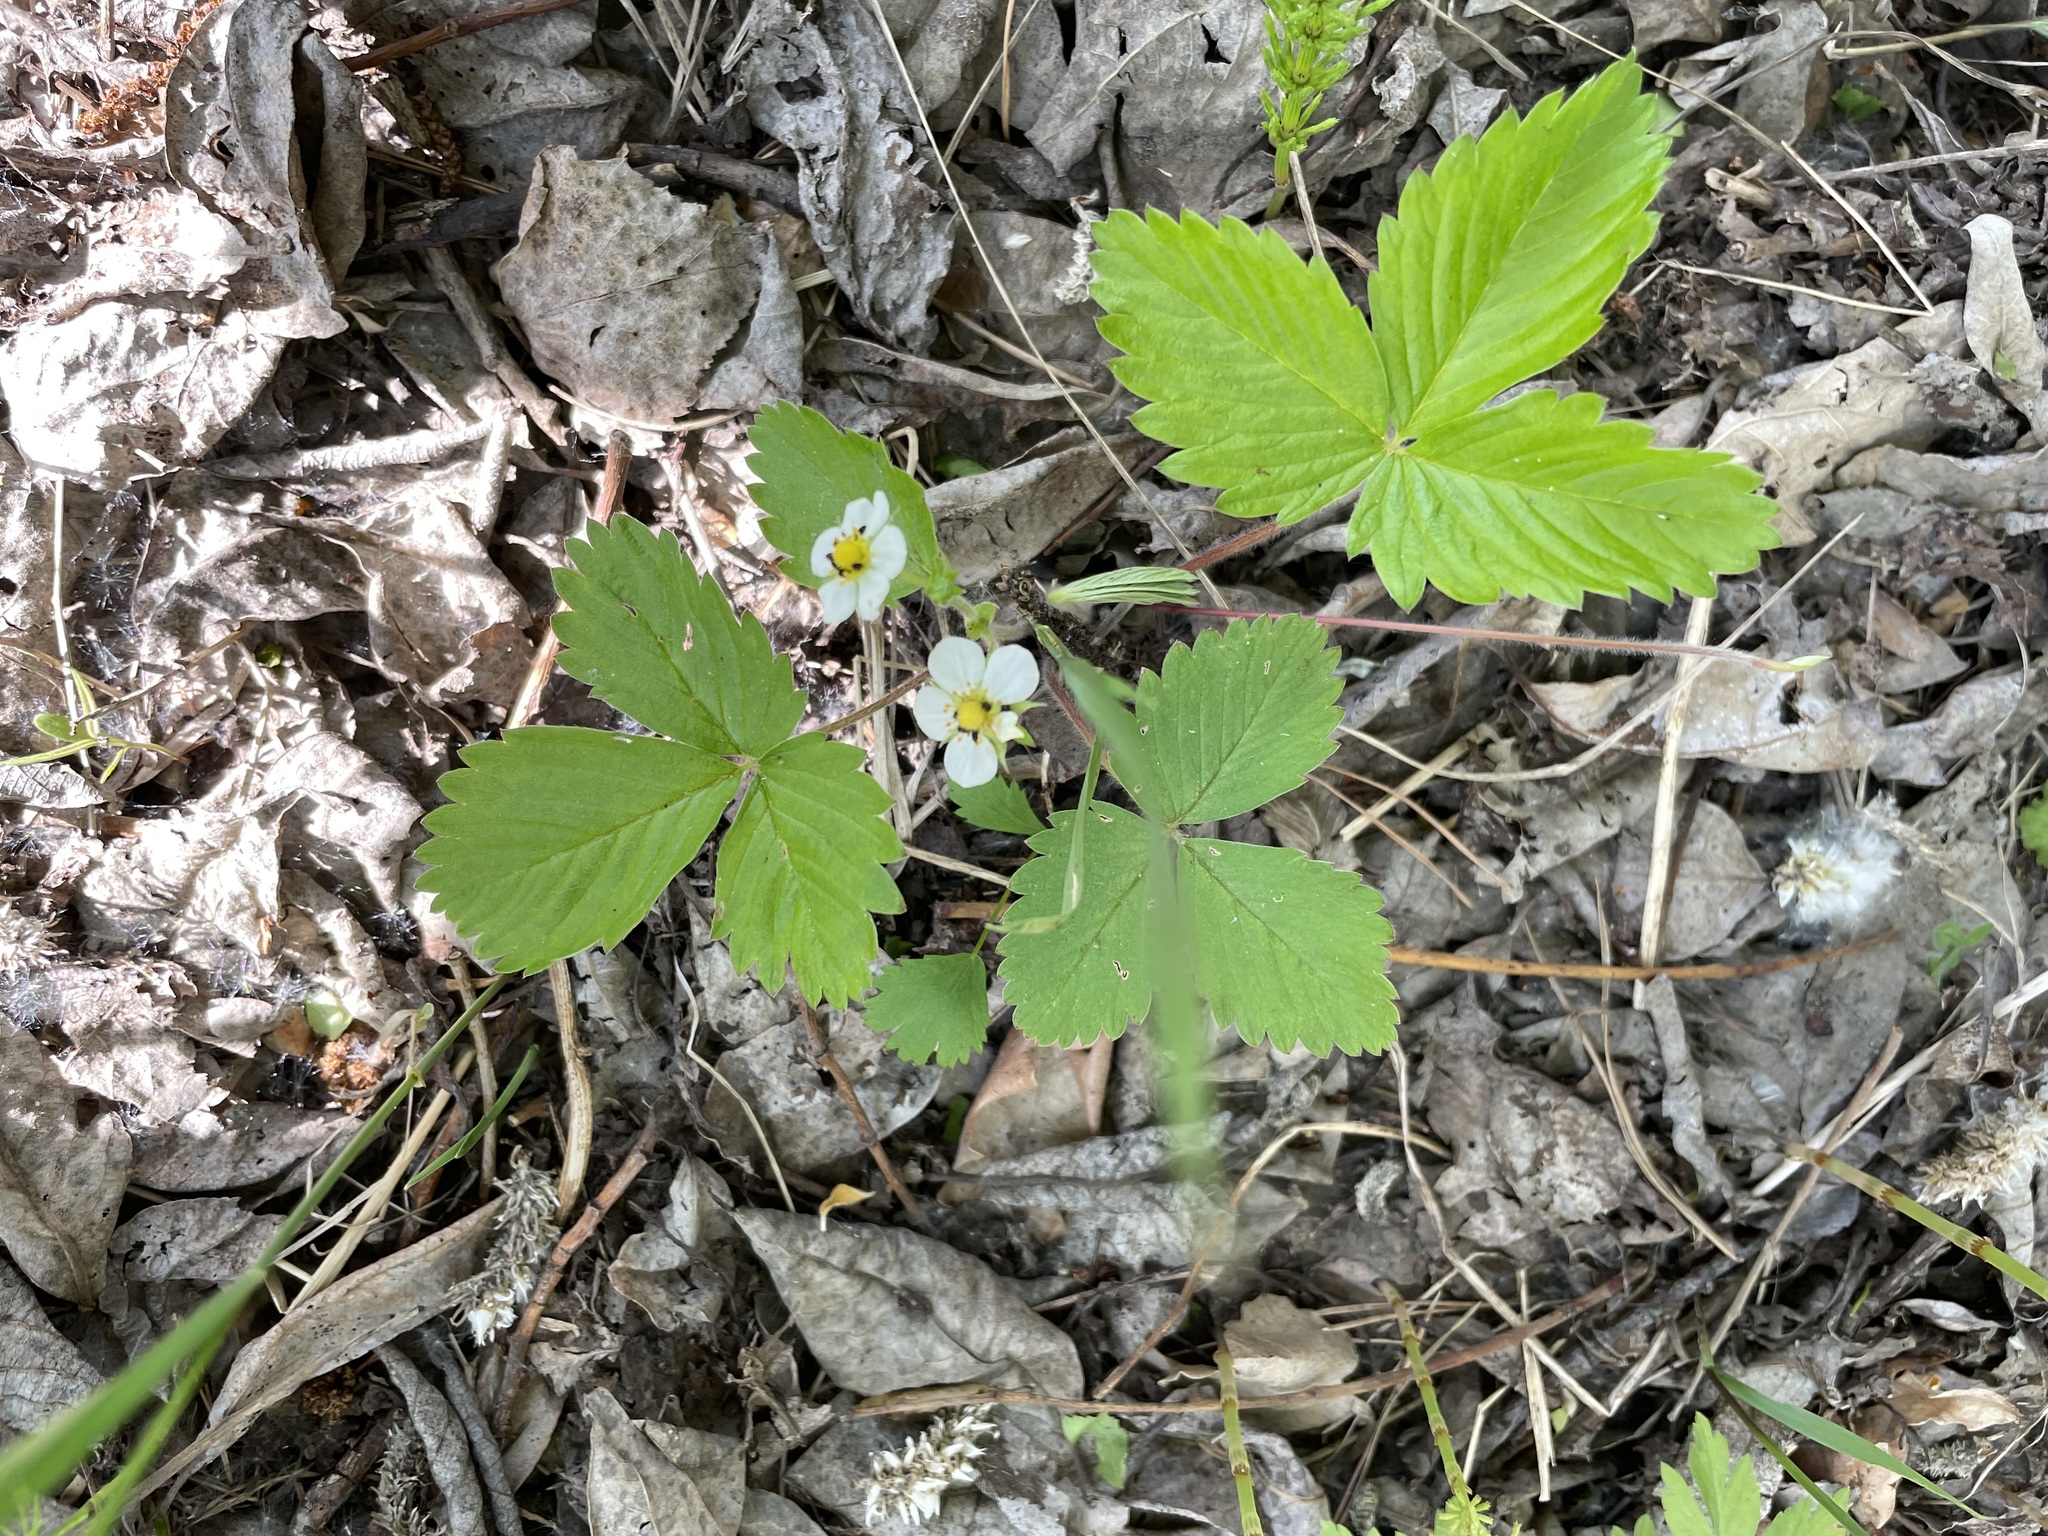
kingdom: Plantae
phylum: Tracheophyta
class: Magnoliopsida
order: Rosales
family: Rosaceae
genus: Fragaria
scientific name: Fragaria vesca
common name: Wild strawberry
